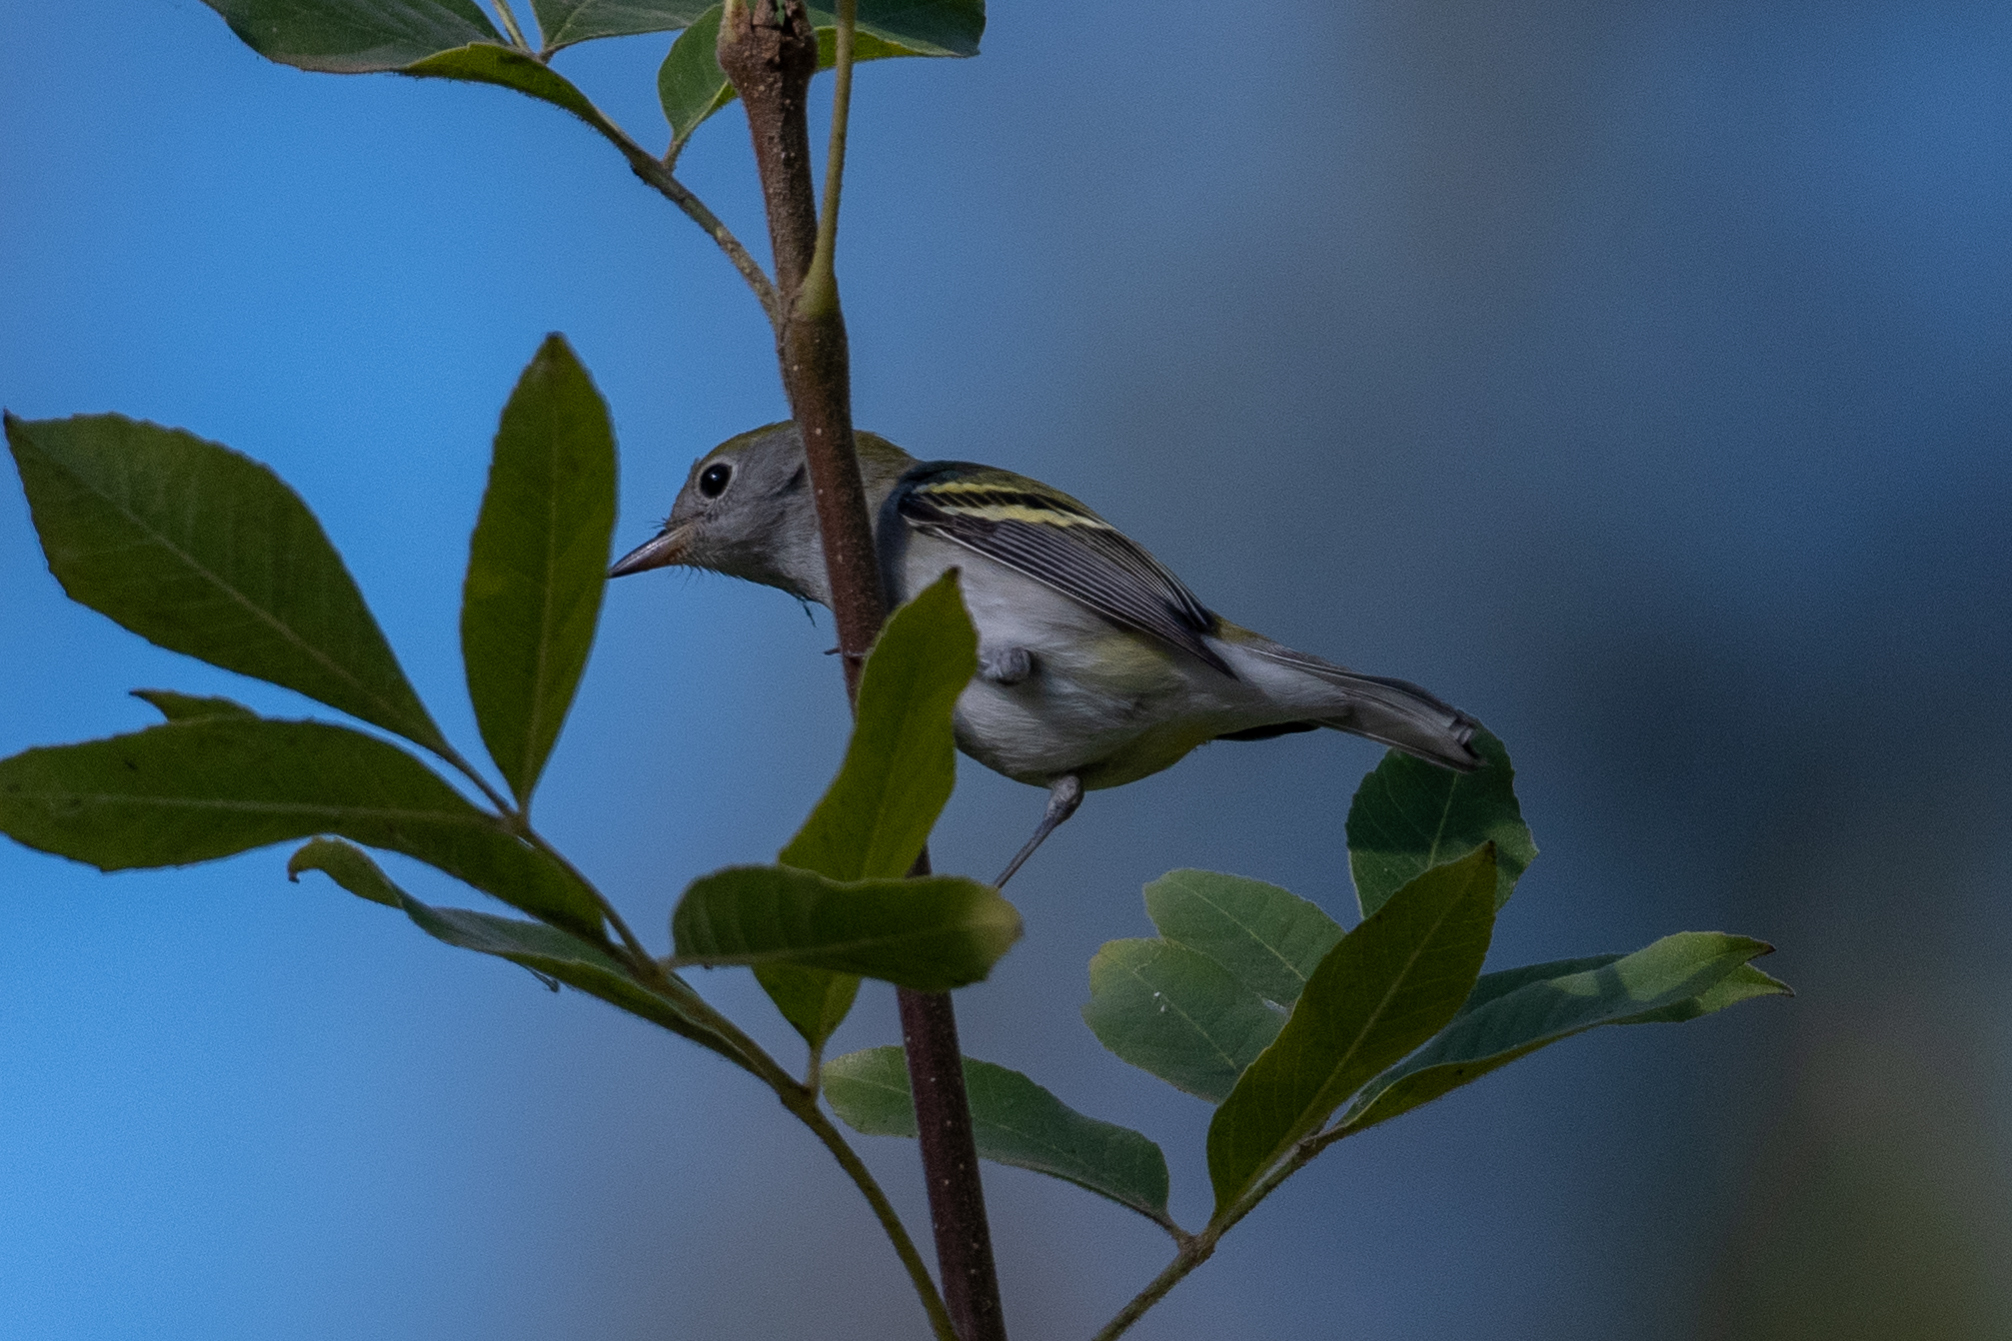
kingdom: Animalia
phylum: Chordata
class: Aves
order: Passeriformes
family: Parulidae
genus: Setophaga
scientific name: Setophaga pensylvanica
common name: Chestnut-sided warbler
